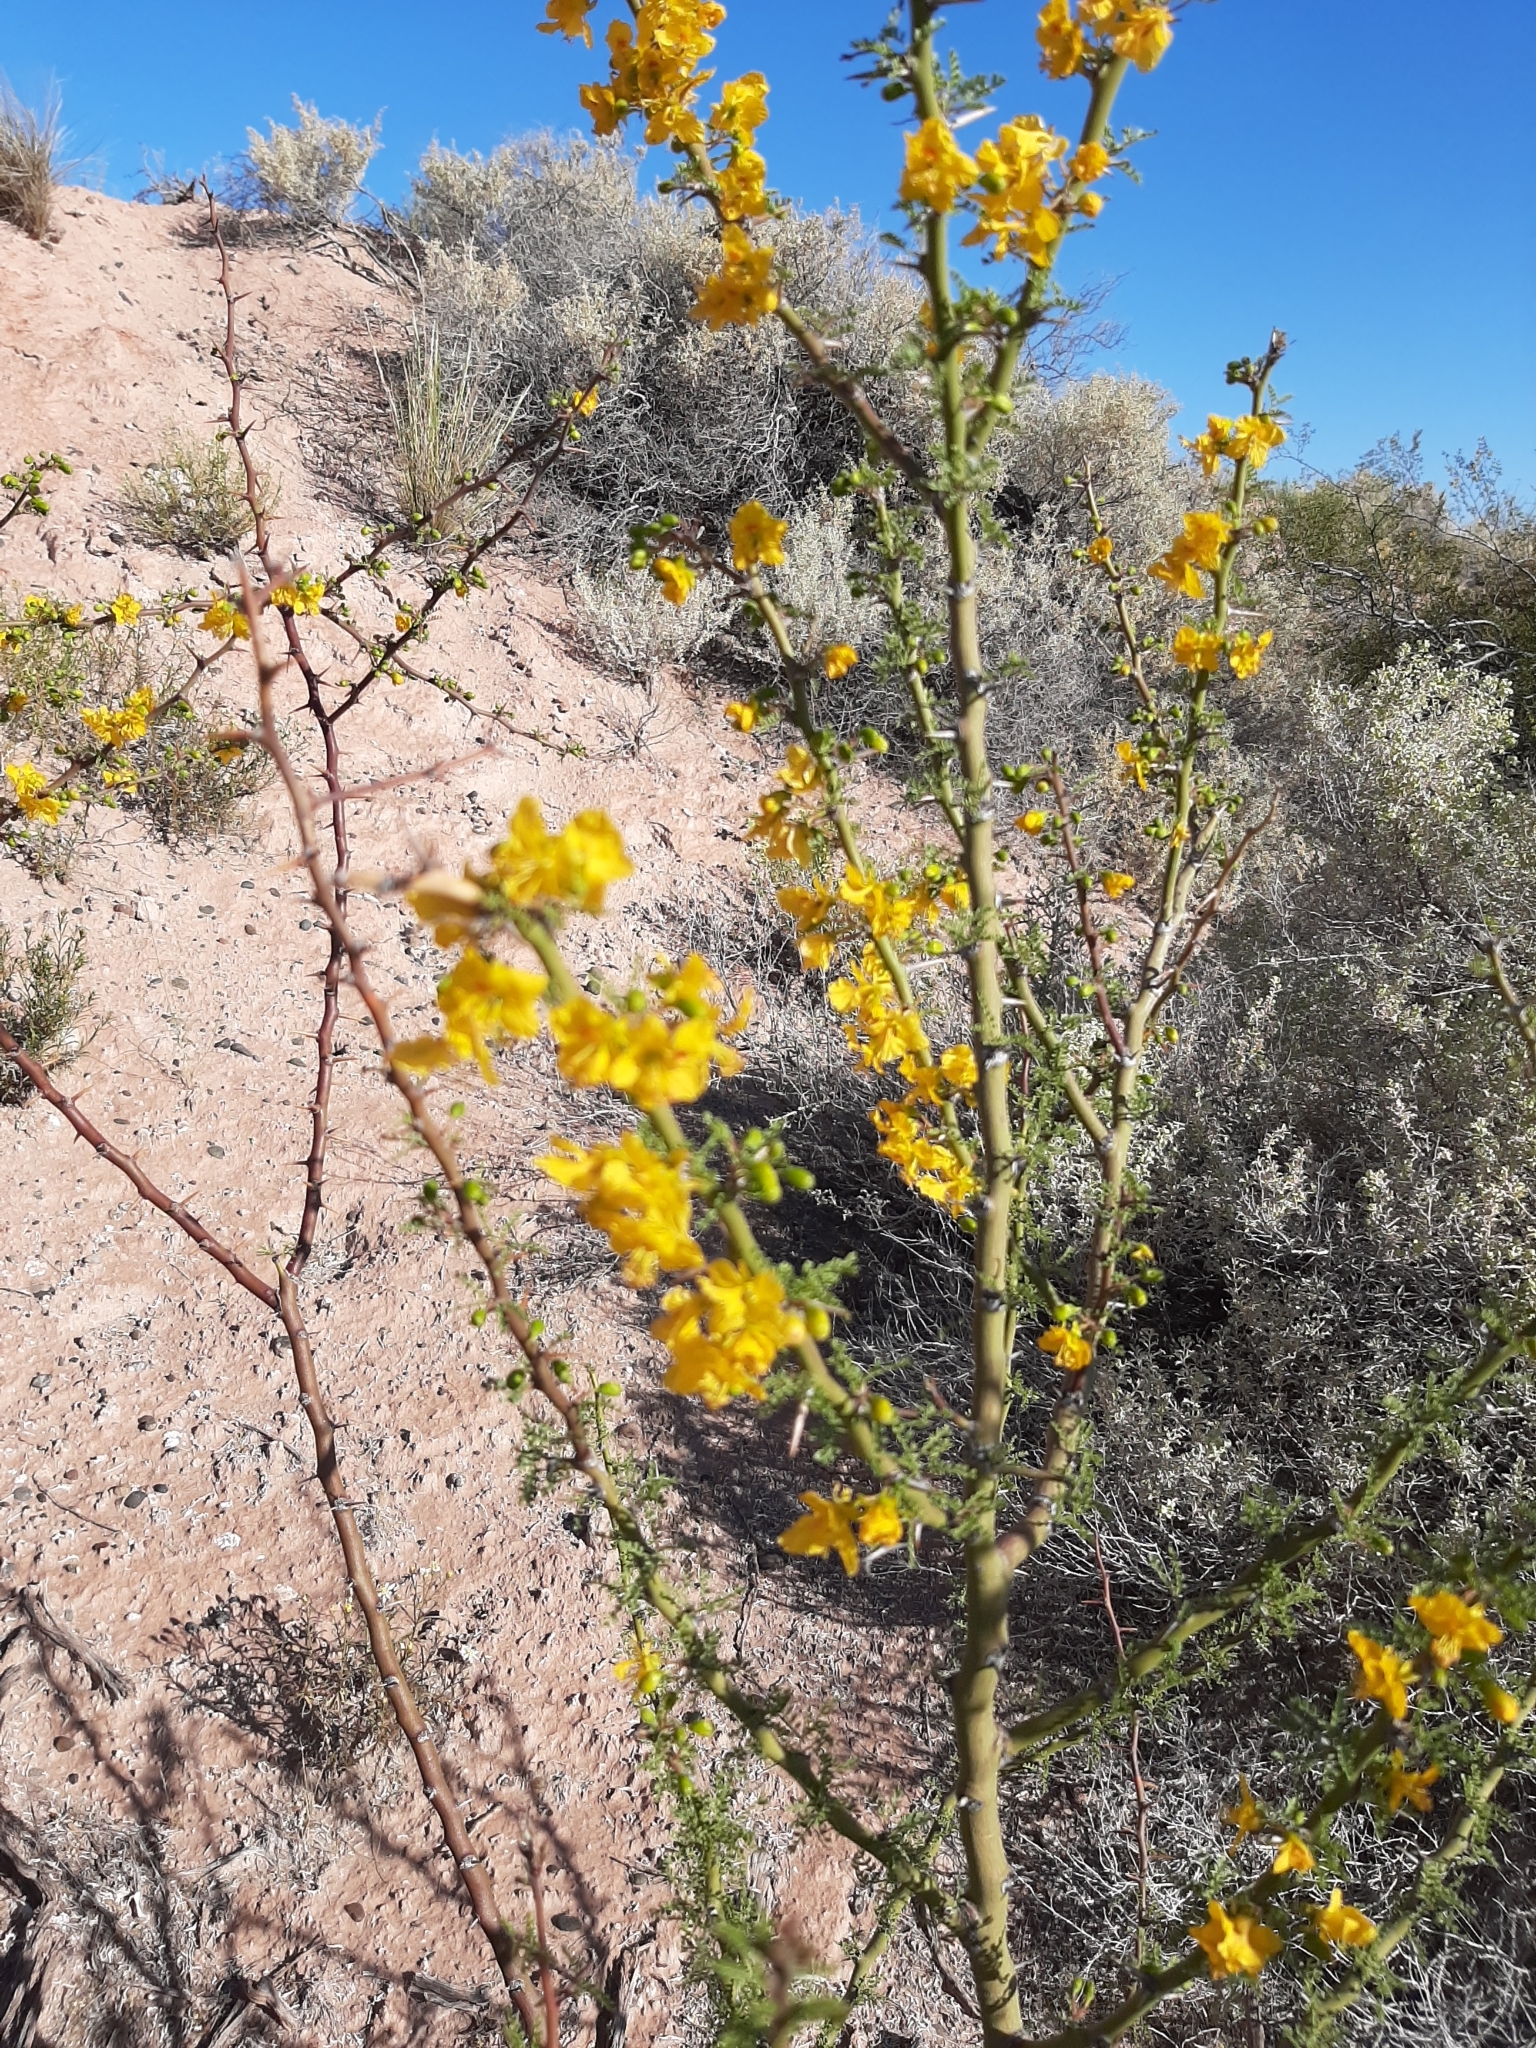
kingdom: Plantae
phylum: Tracheophyta
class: Magnoliopsida
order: Fabales
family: Fabaceae
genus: Parkinsonia
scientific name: Parkinsonia praecox
